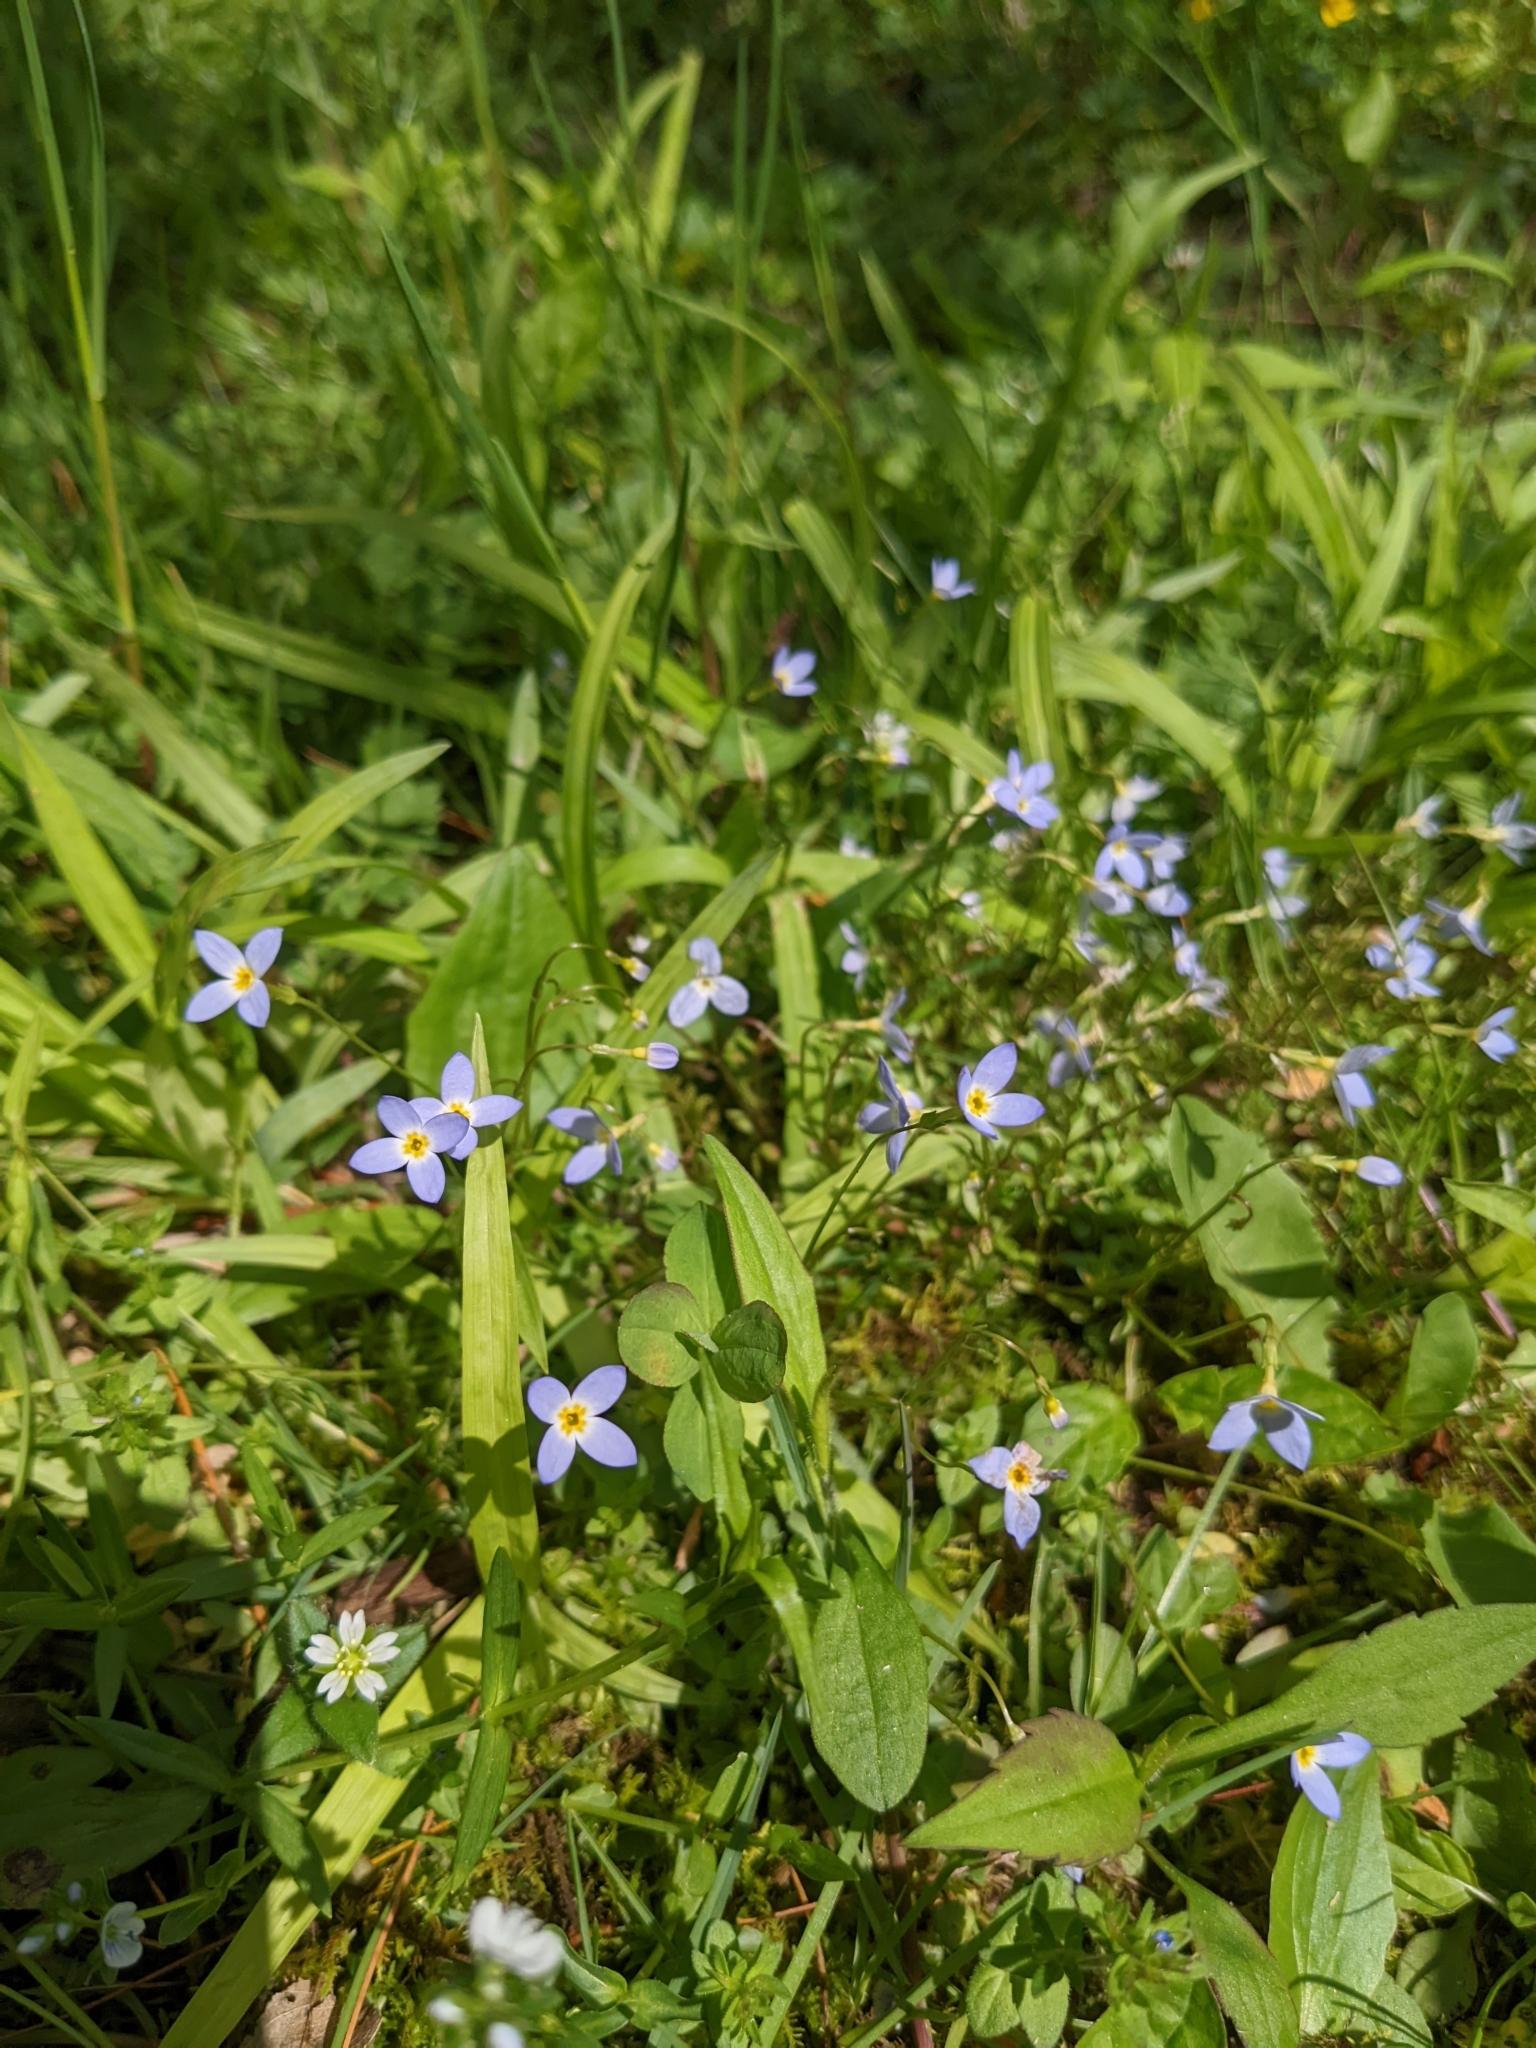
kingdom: Plantae
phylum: Tracheophyta
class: Magnoliopsida
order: Gentianales
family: Rubiaceae
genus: Houstonia
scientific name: Houstonia serpyllifolia
